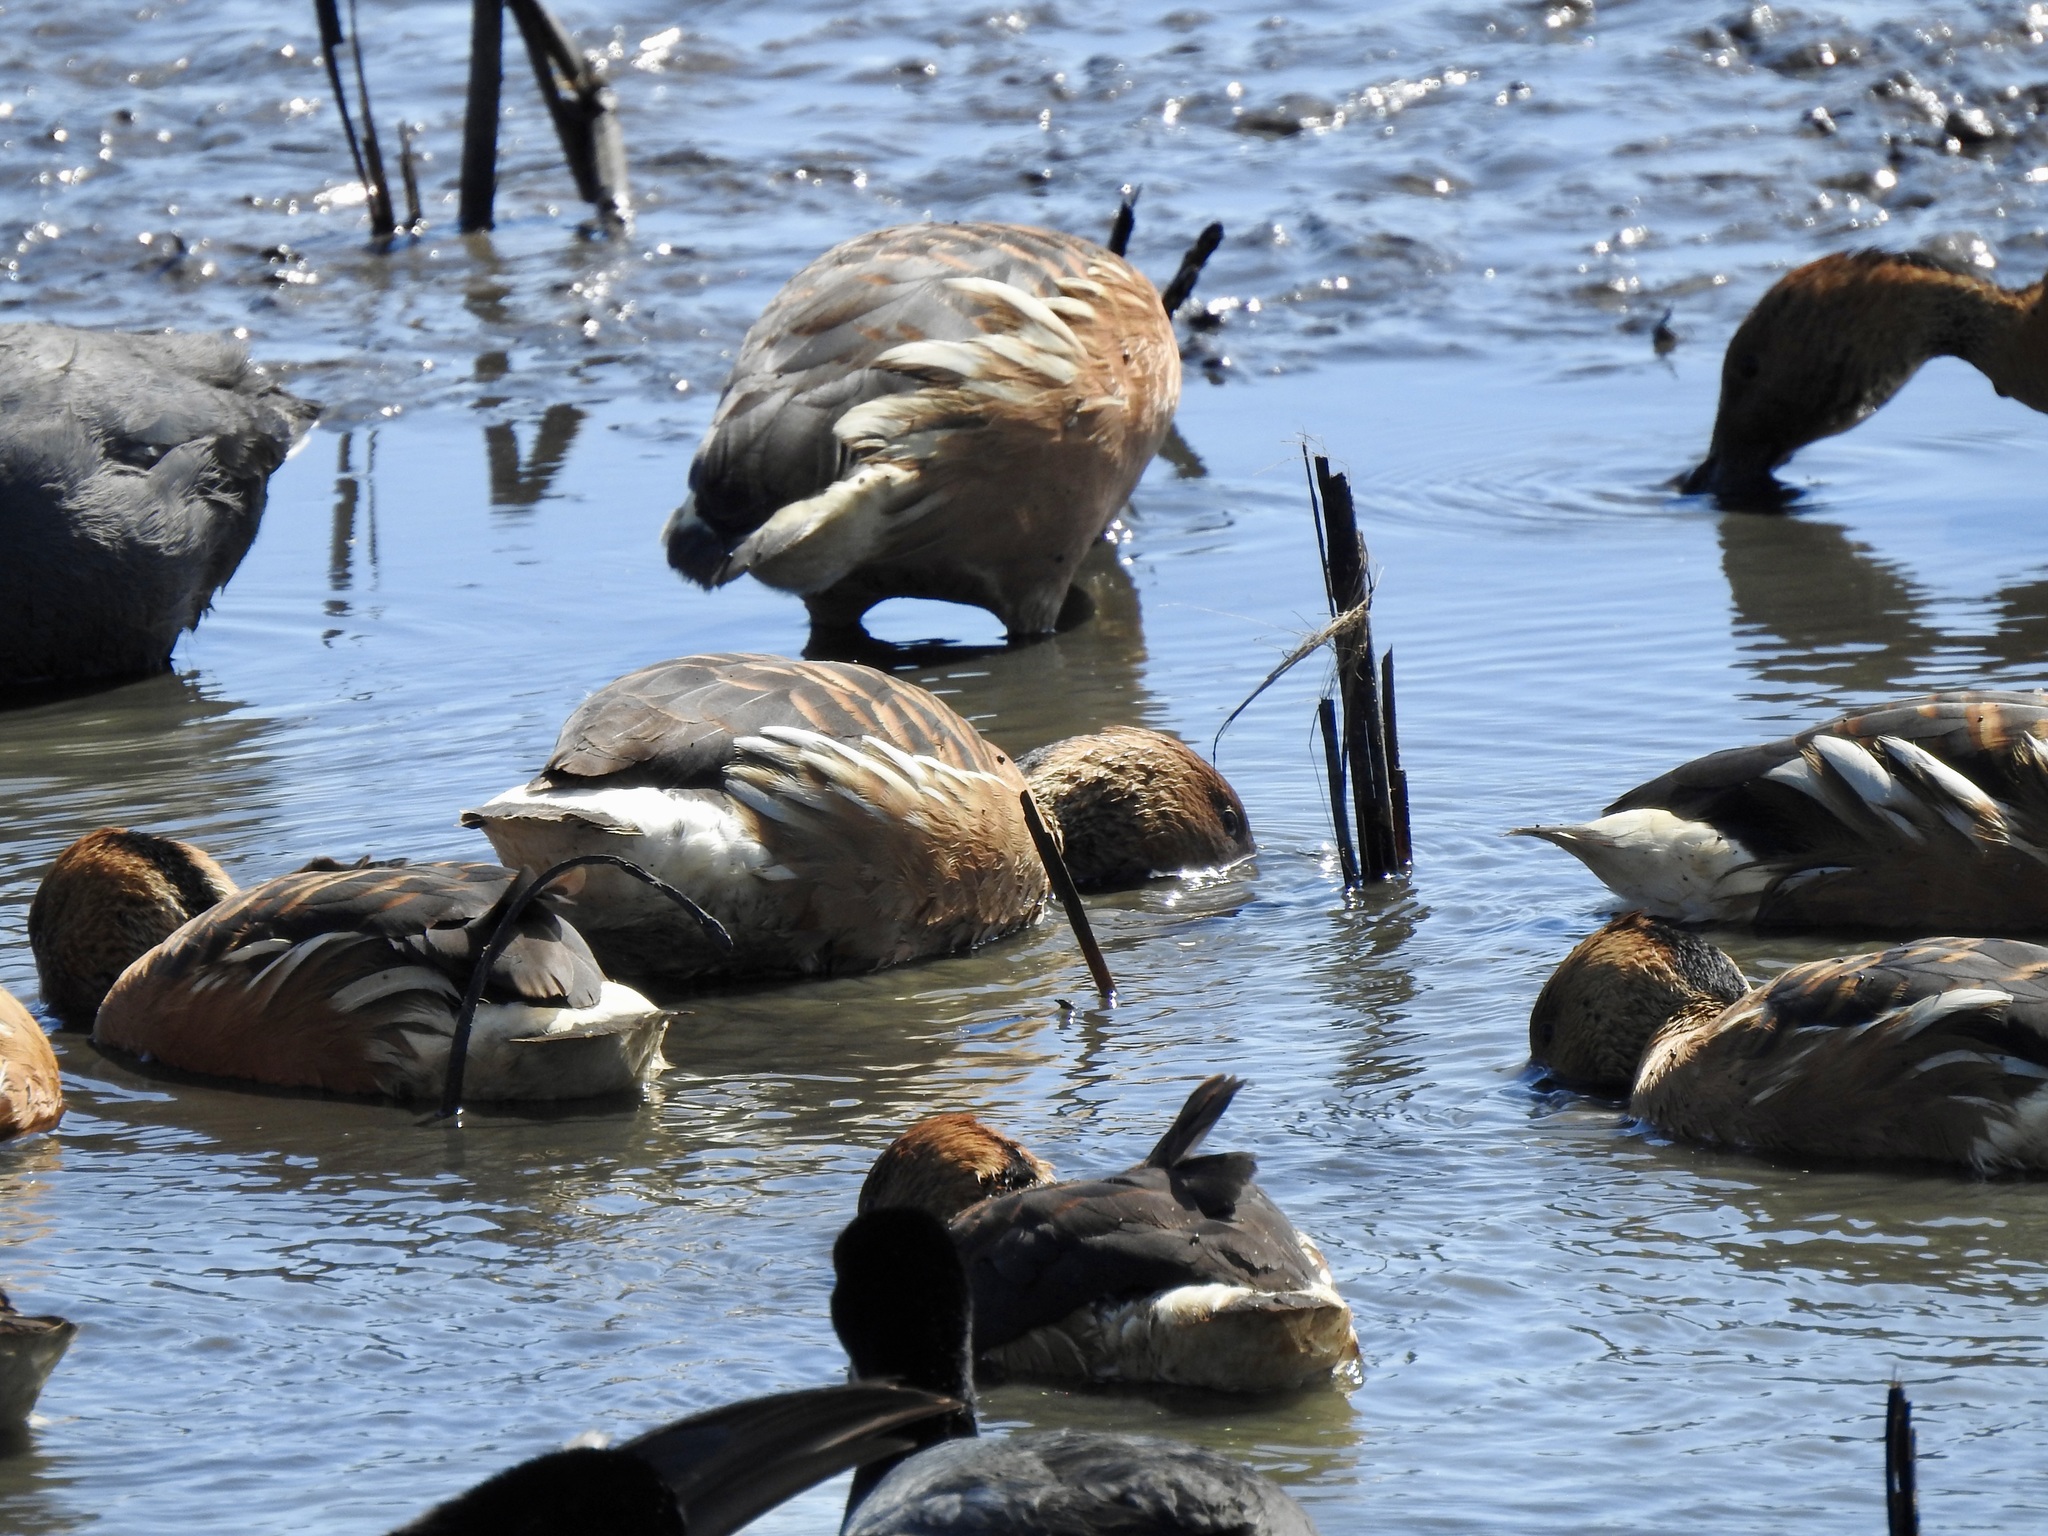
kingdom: Animalia
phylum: Chordata
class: Aves
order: Anseriformes
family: Anatidae
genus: Dendrocygna
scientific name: Dendrocygna bicolor
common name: Fulvous whistling duck
